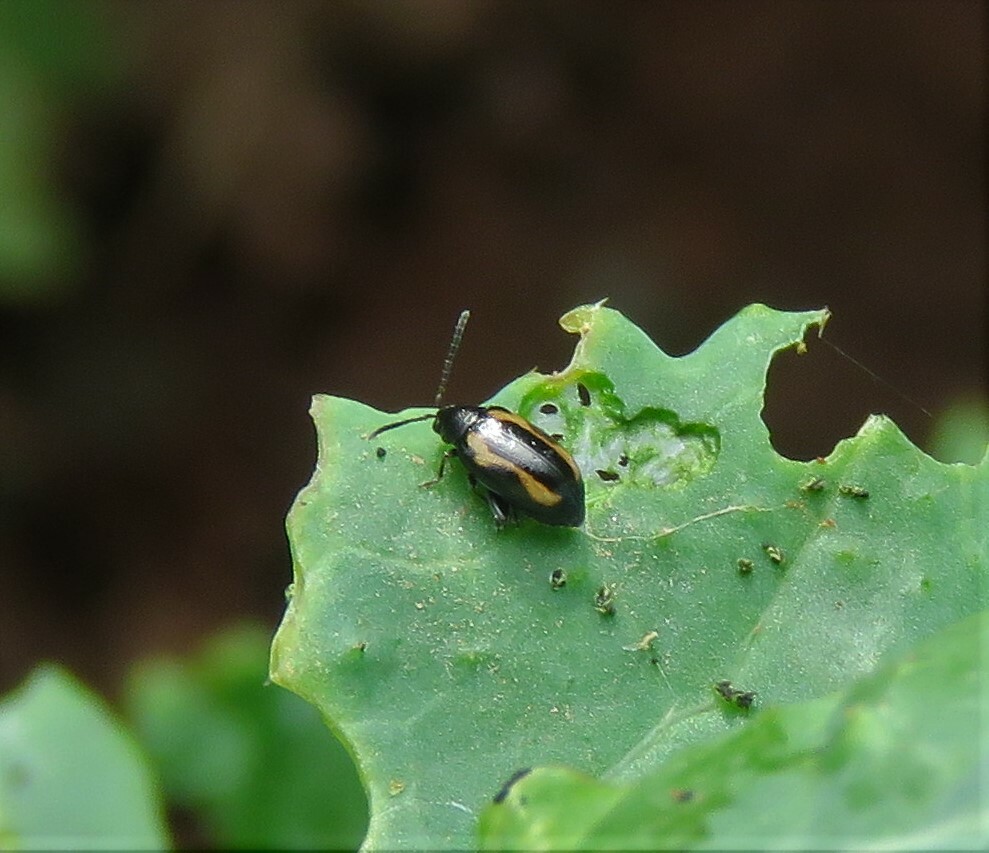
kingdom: Animalia
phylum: Arthropoda
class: Insecta
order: Coleoptera
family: Chrysomelidae
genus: Phyllotreta
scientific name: Phyllotreta striolata
